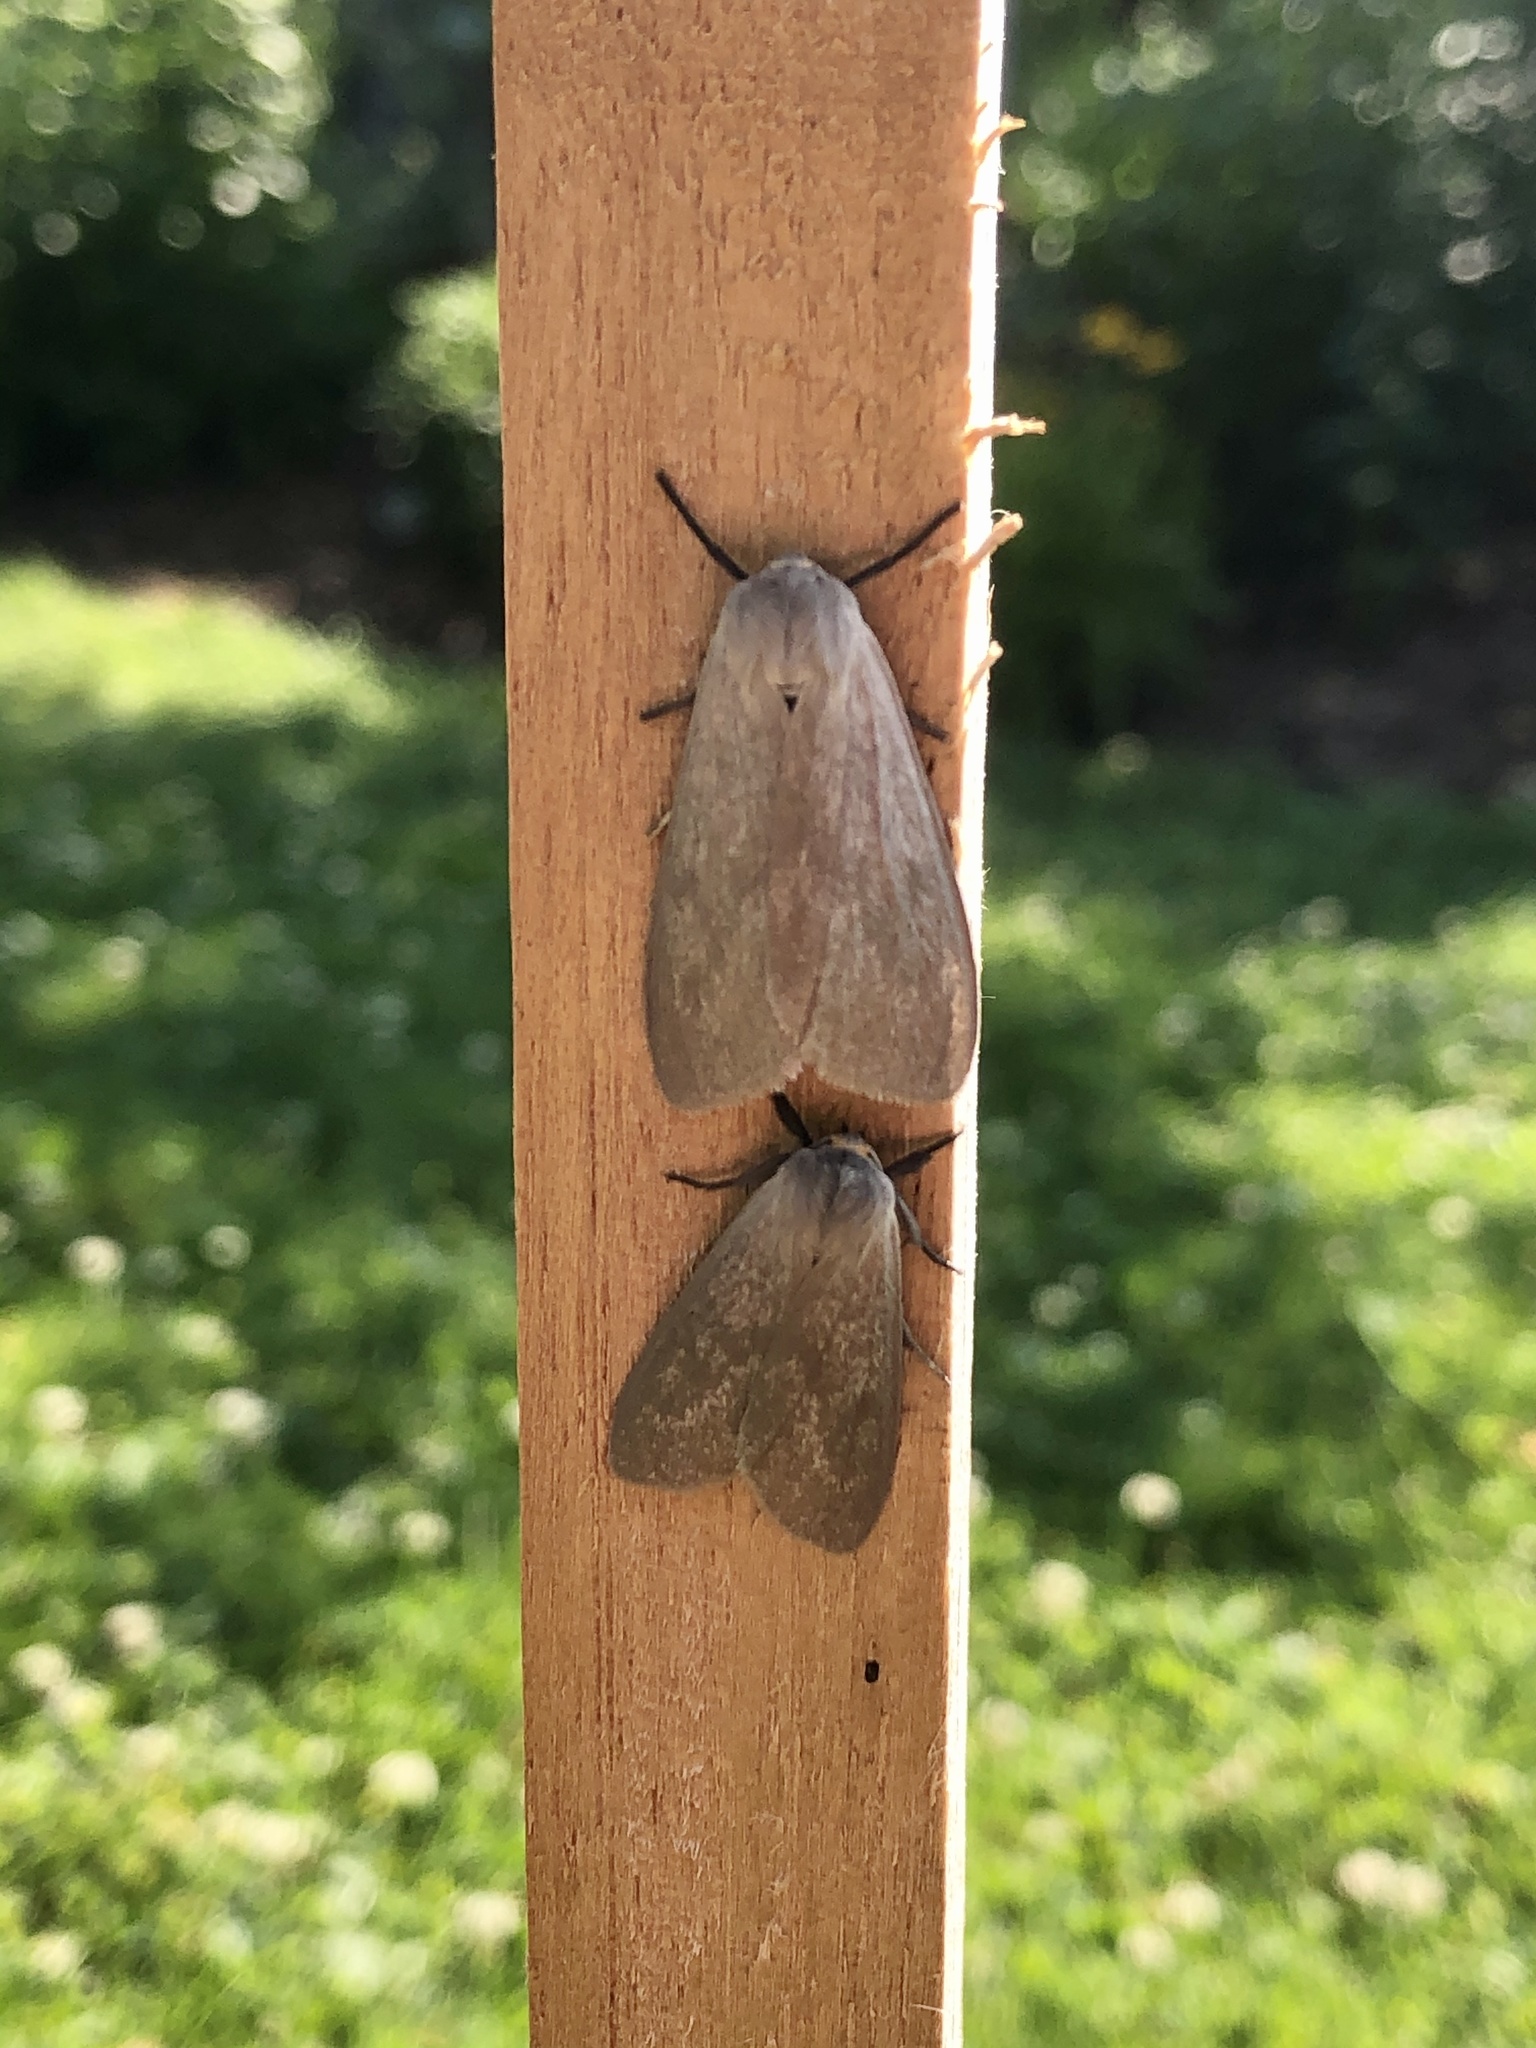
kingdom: Animalia
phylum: Arthropoda
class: Insecta
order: Lepidoptera
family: Erebidae
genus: Euchaetes
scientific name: Euchaetes egle
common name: Milkweed tussock moth
